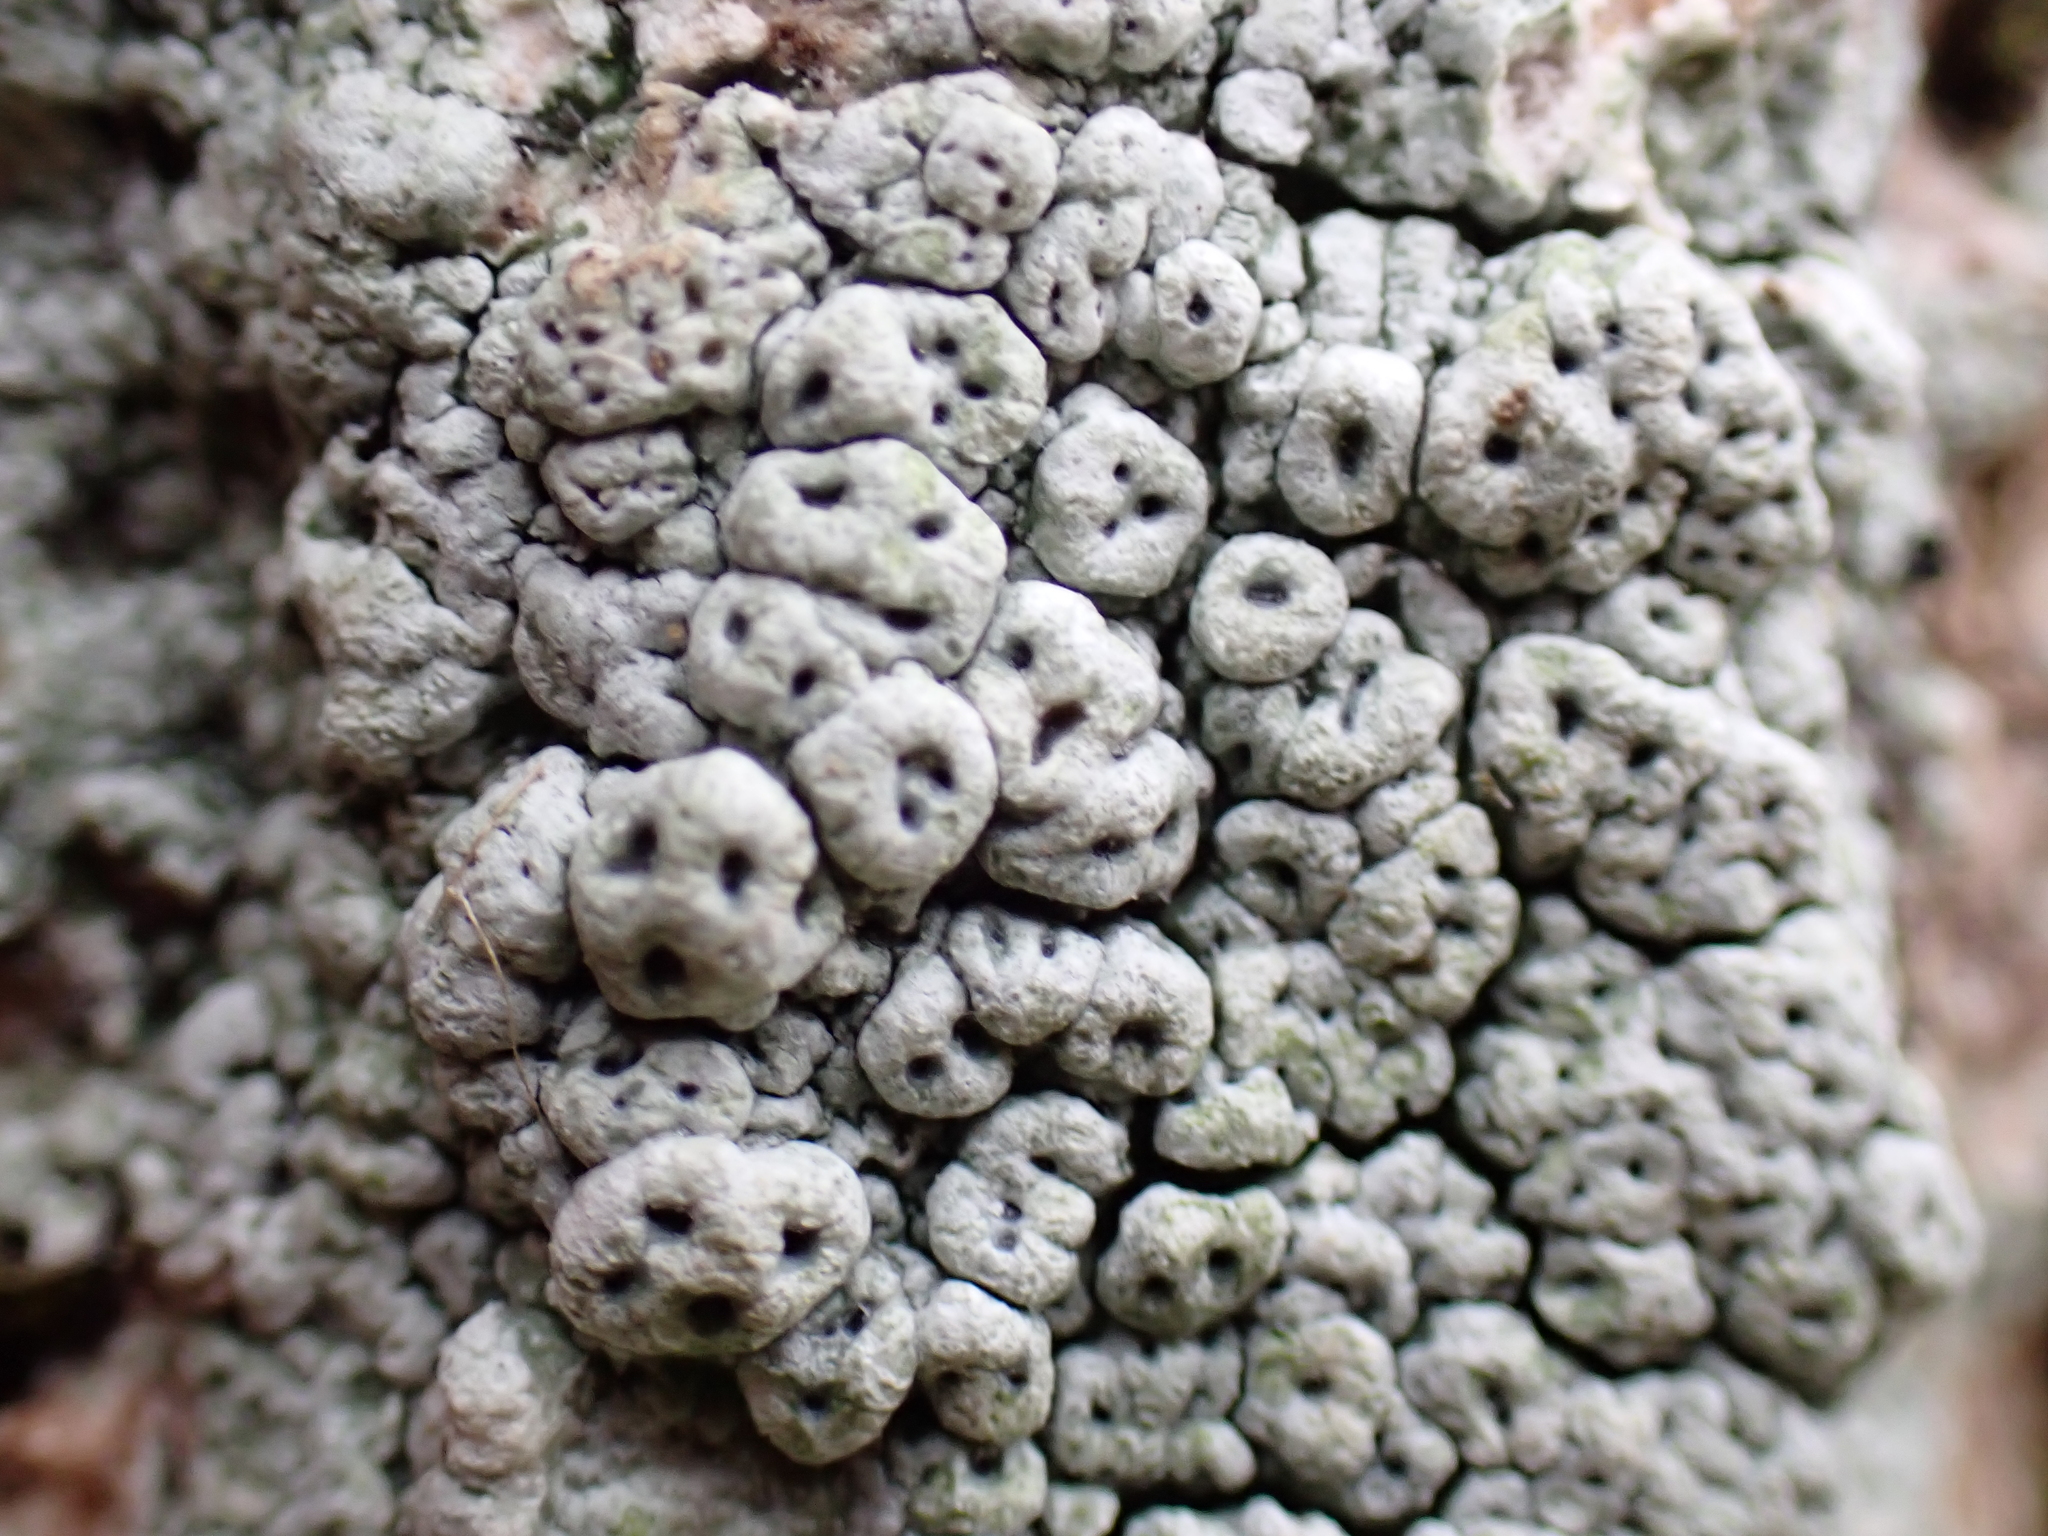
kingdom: Fungi
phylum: Ascomycota
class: Lecanoromycetes
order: Pertusariales
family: Pertusariaceae
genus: Pertusaria
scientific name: Pertusaria pertusa
